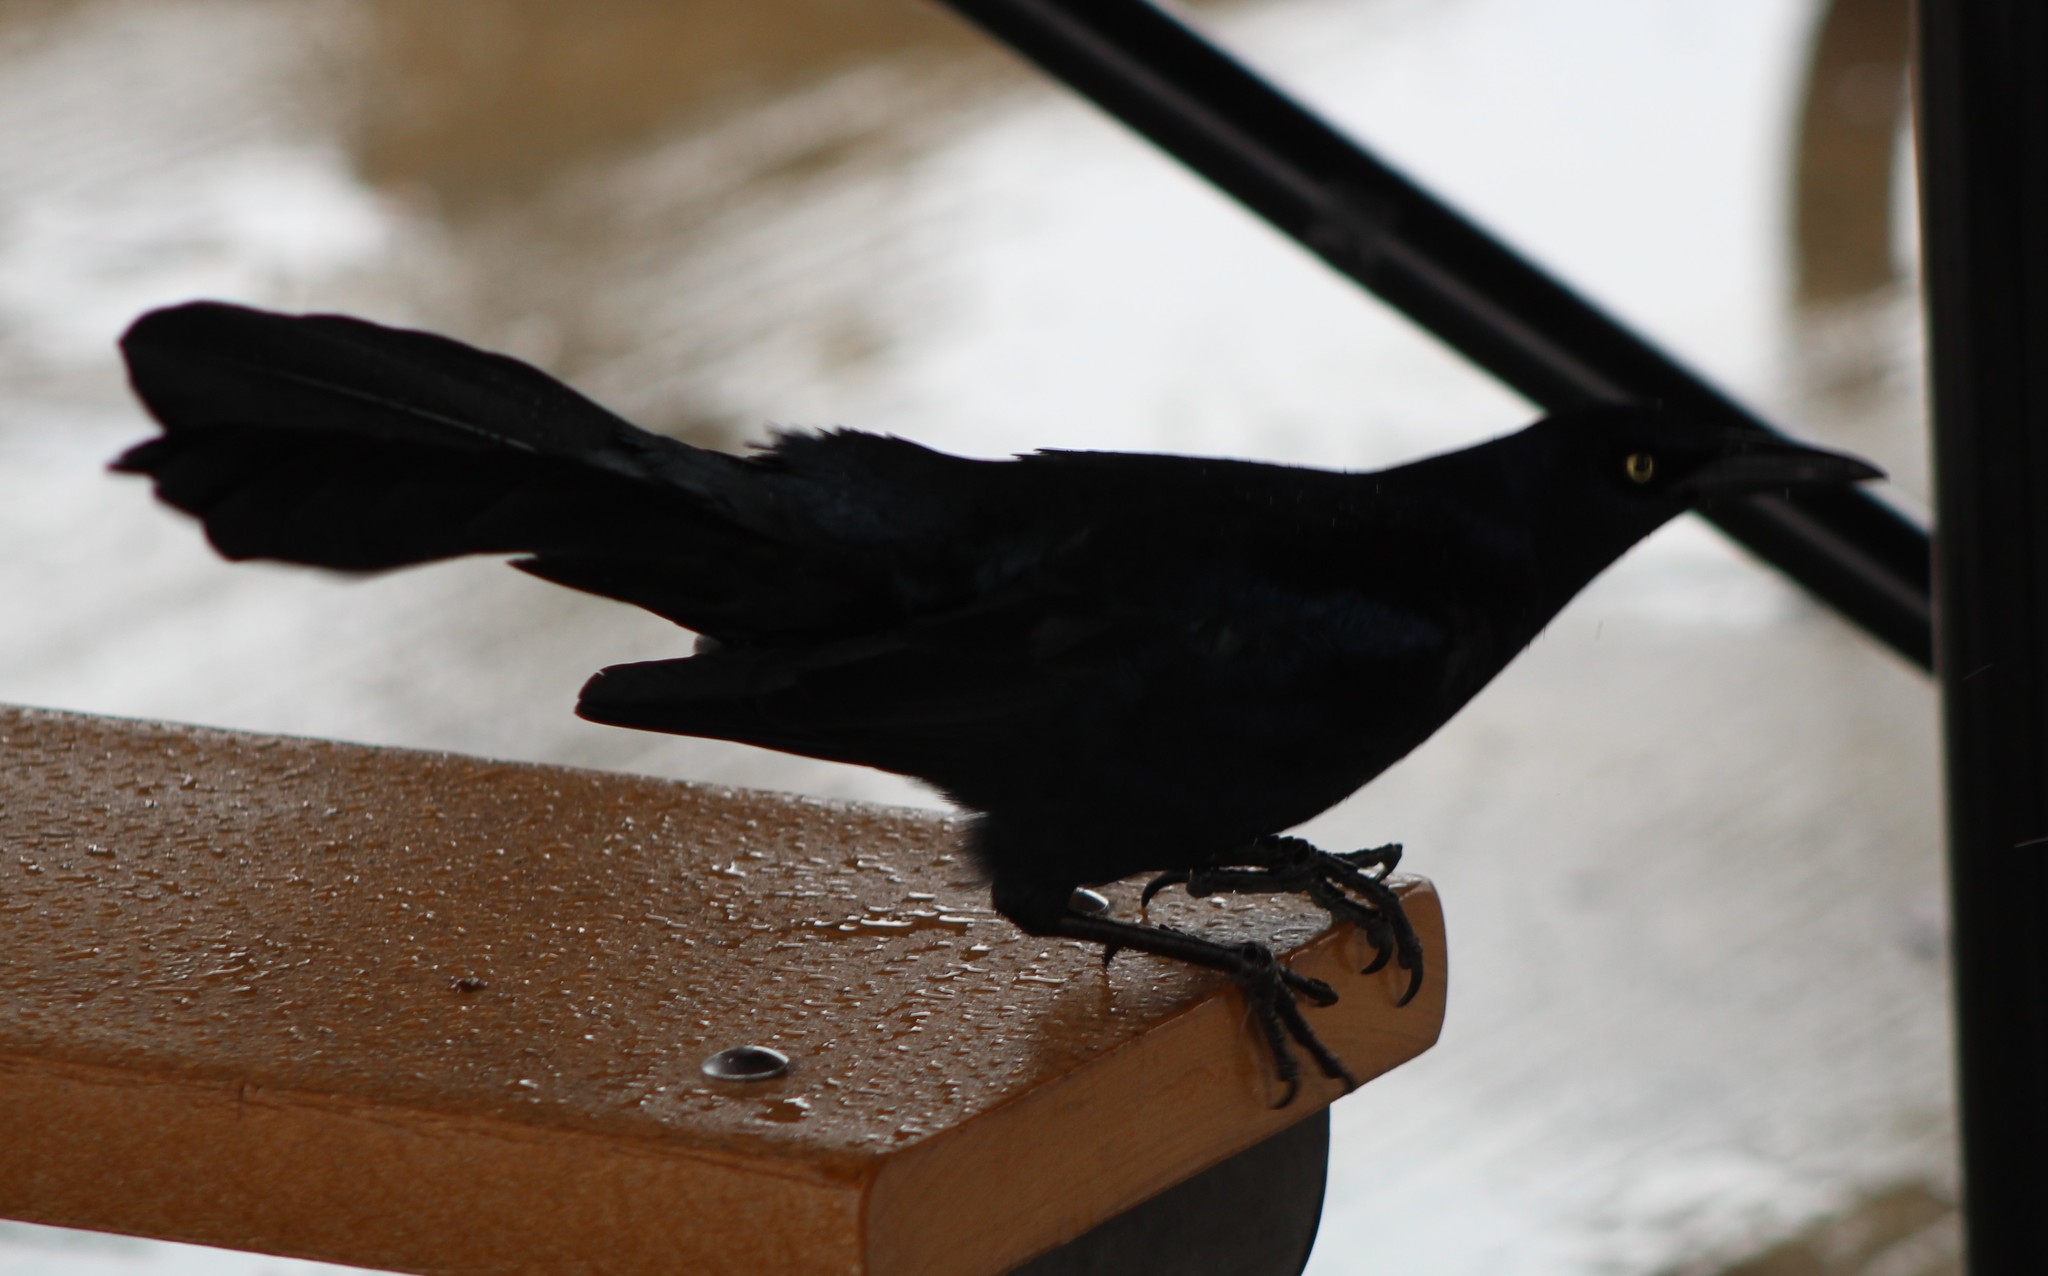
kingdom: Animalia
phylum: Chordata
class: Aves
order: Passeriformes
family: Icteridae
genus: Quiscalus
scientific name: Quiscalus mexicanus
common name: Great-tailed grackle
